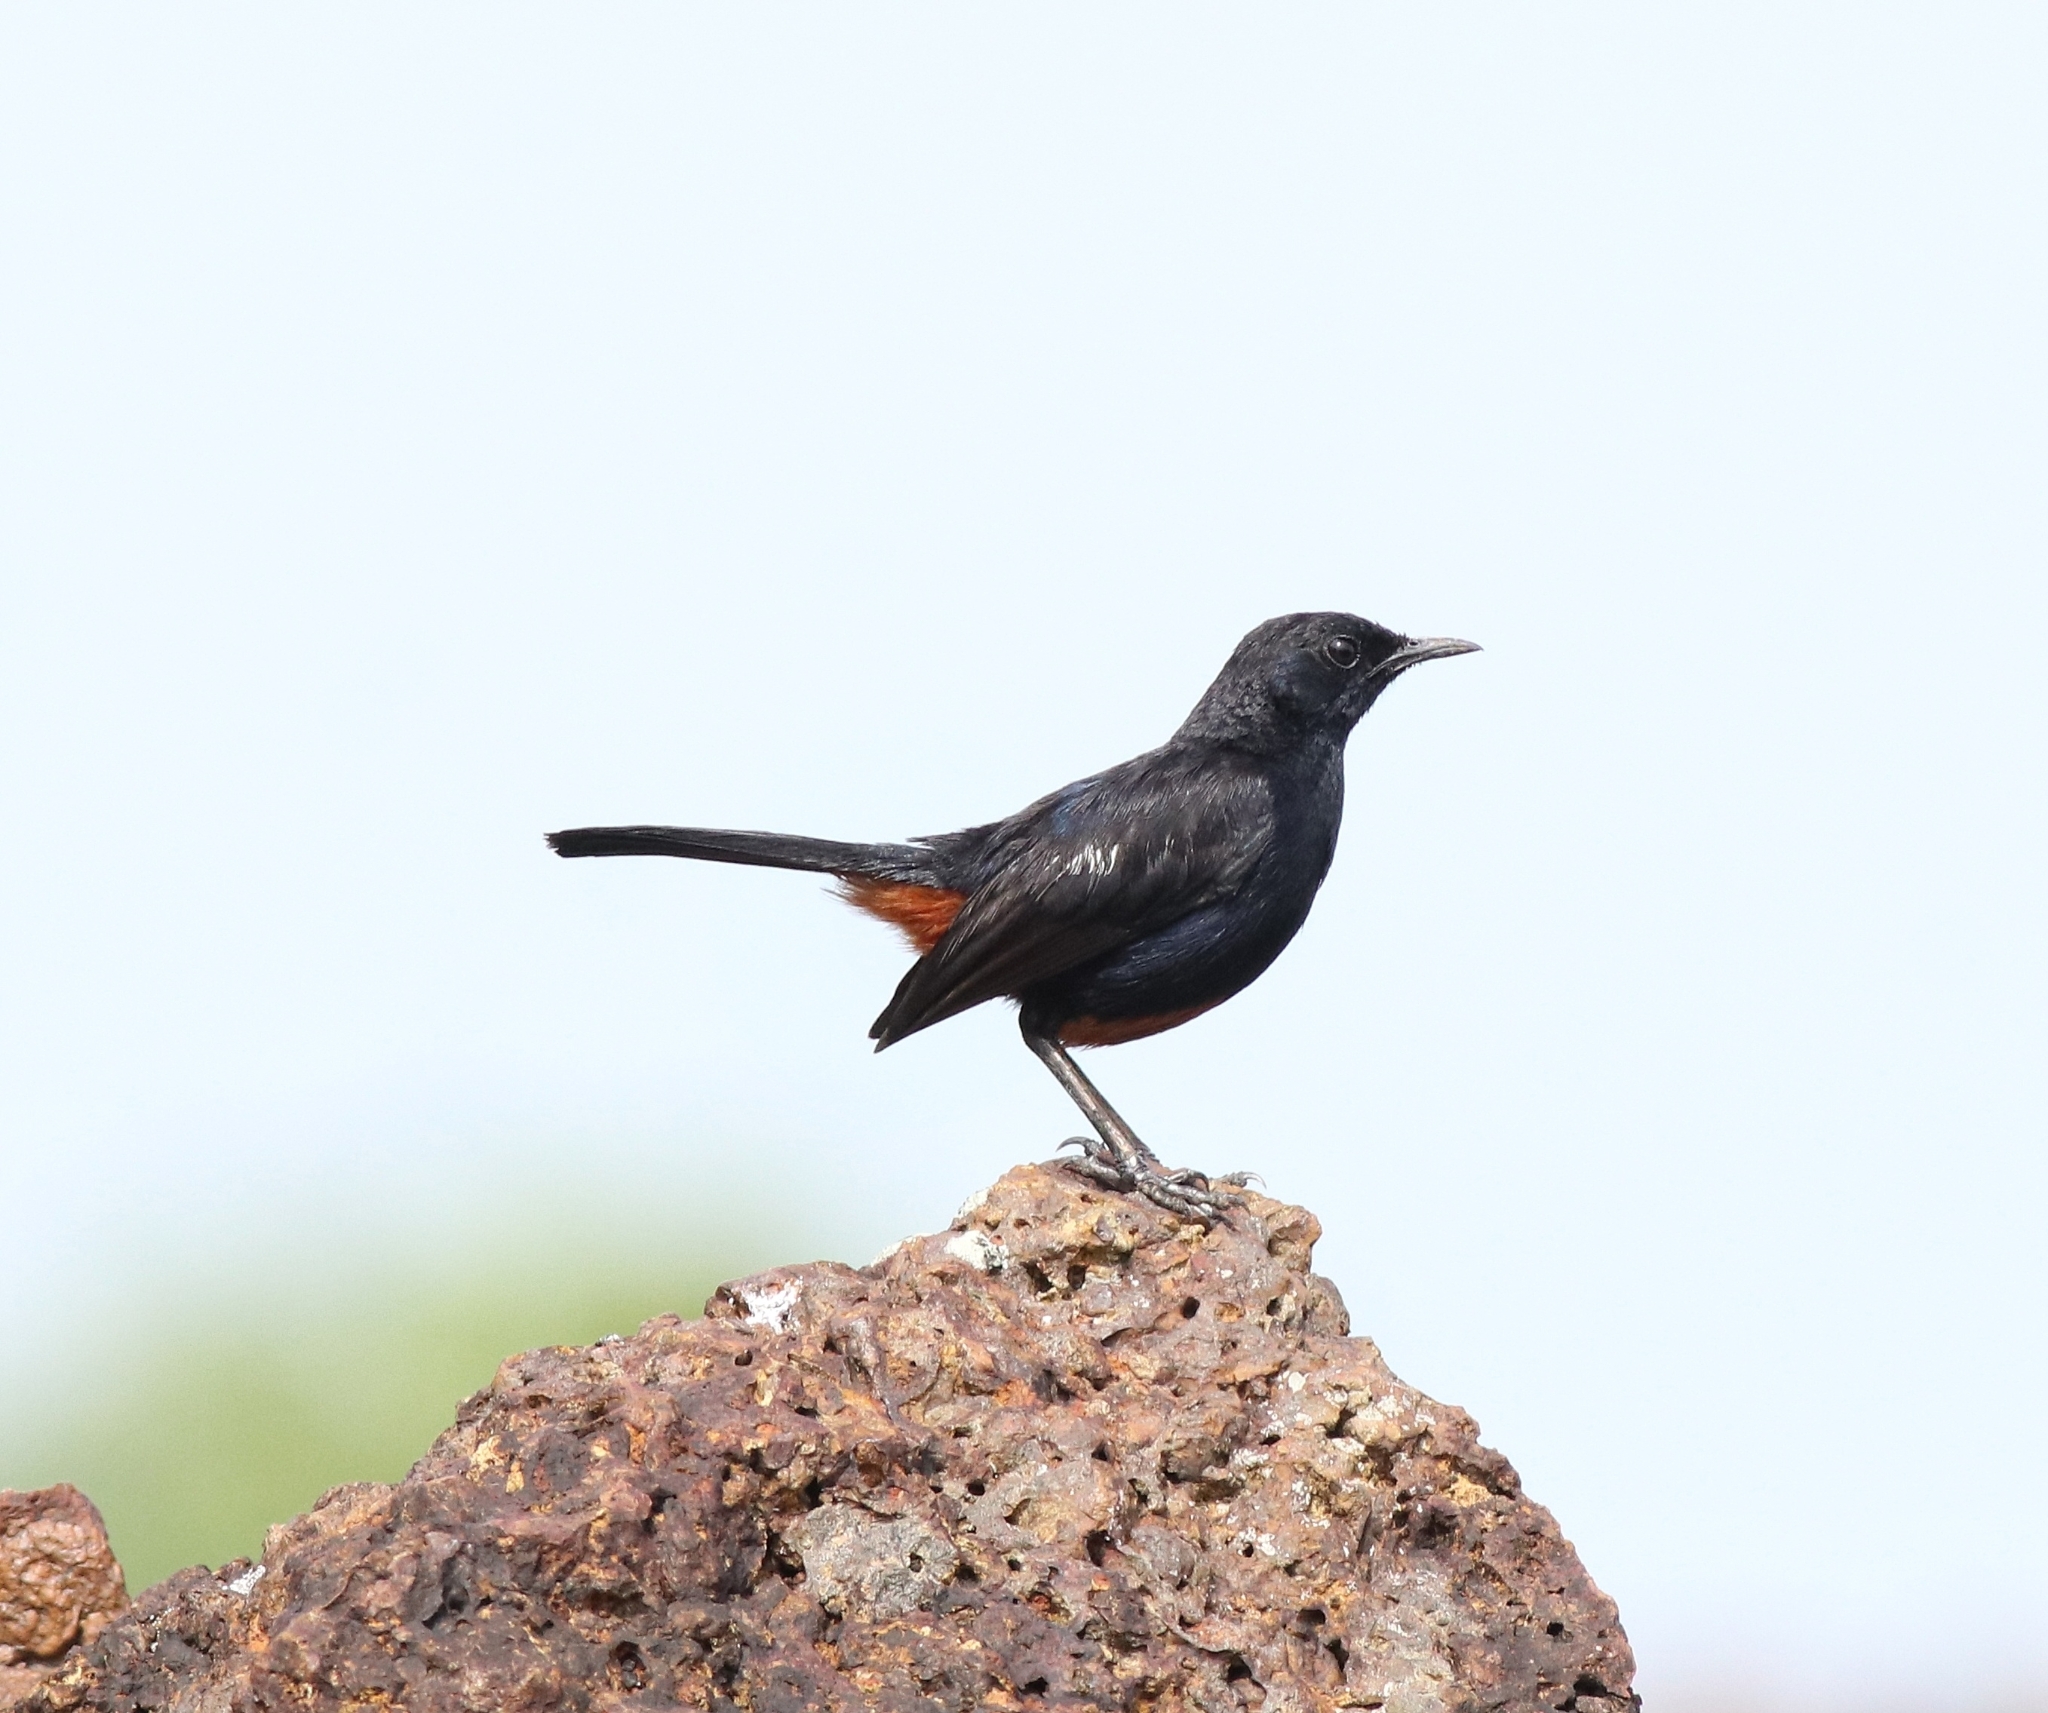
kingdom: Animalia
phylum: Chordata
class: Aves
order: Passeriformes
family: Muscicapidae
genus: Saxicoloides
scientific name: Saxicoloides fulicatus
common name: Indian robin
